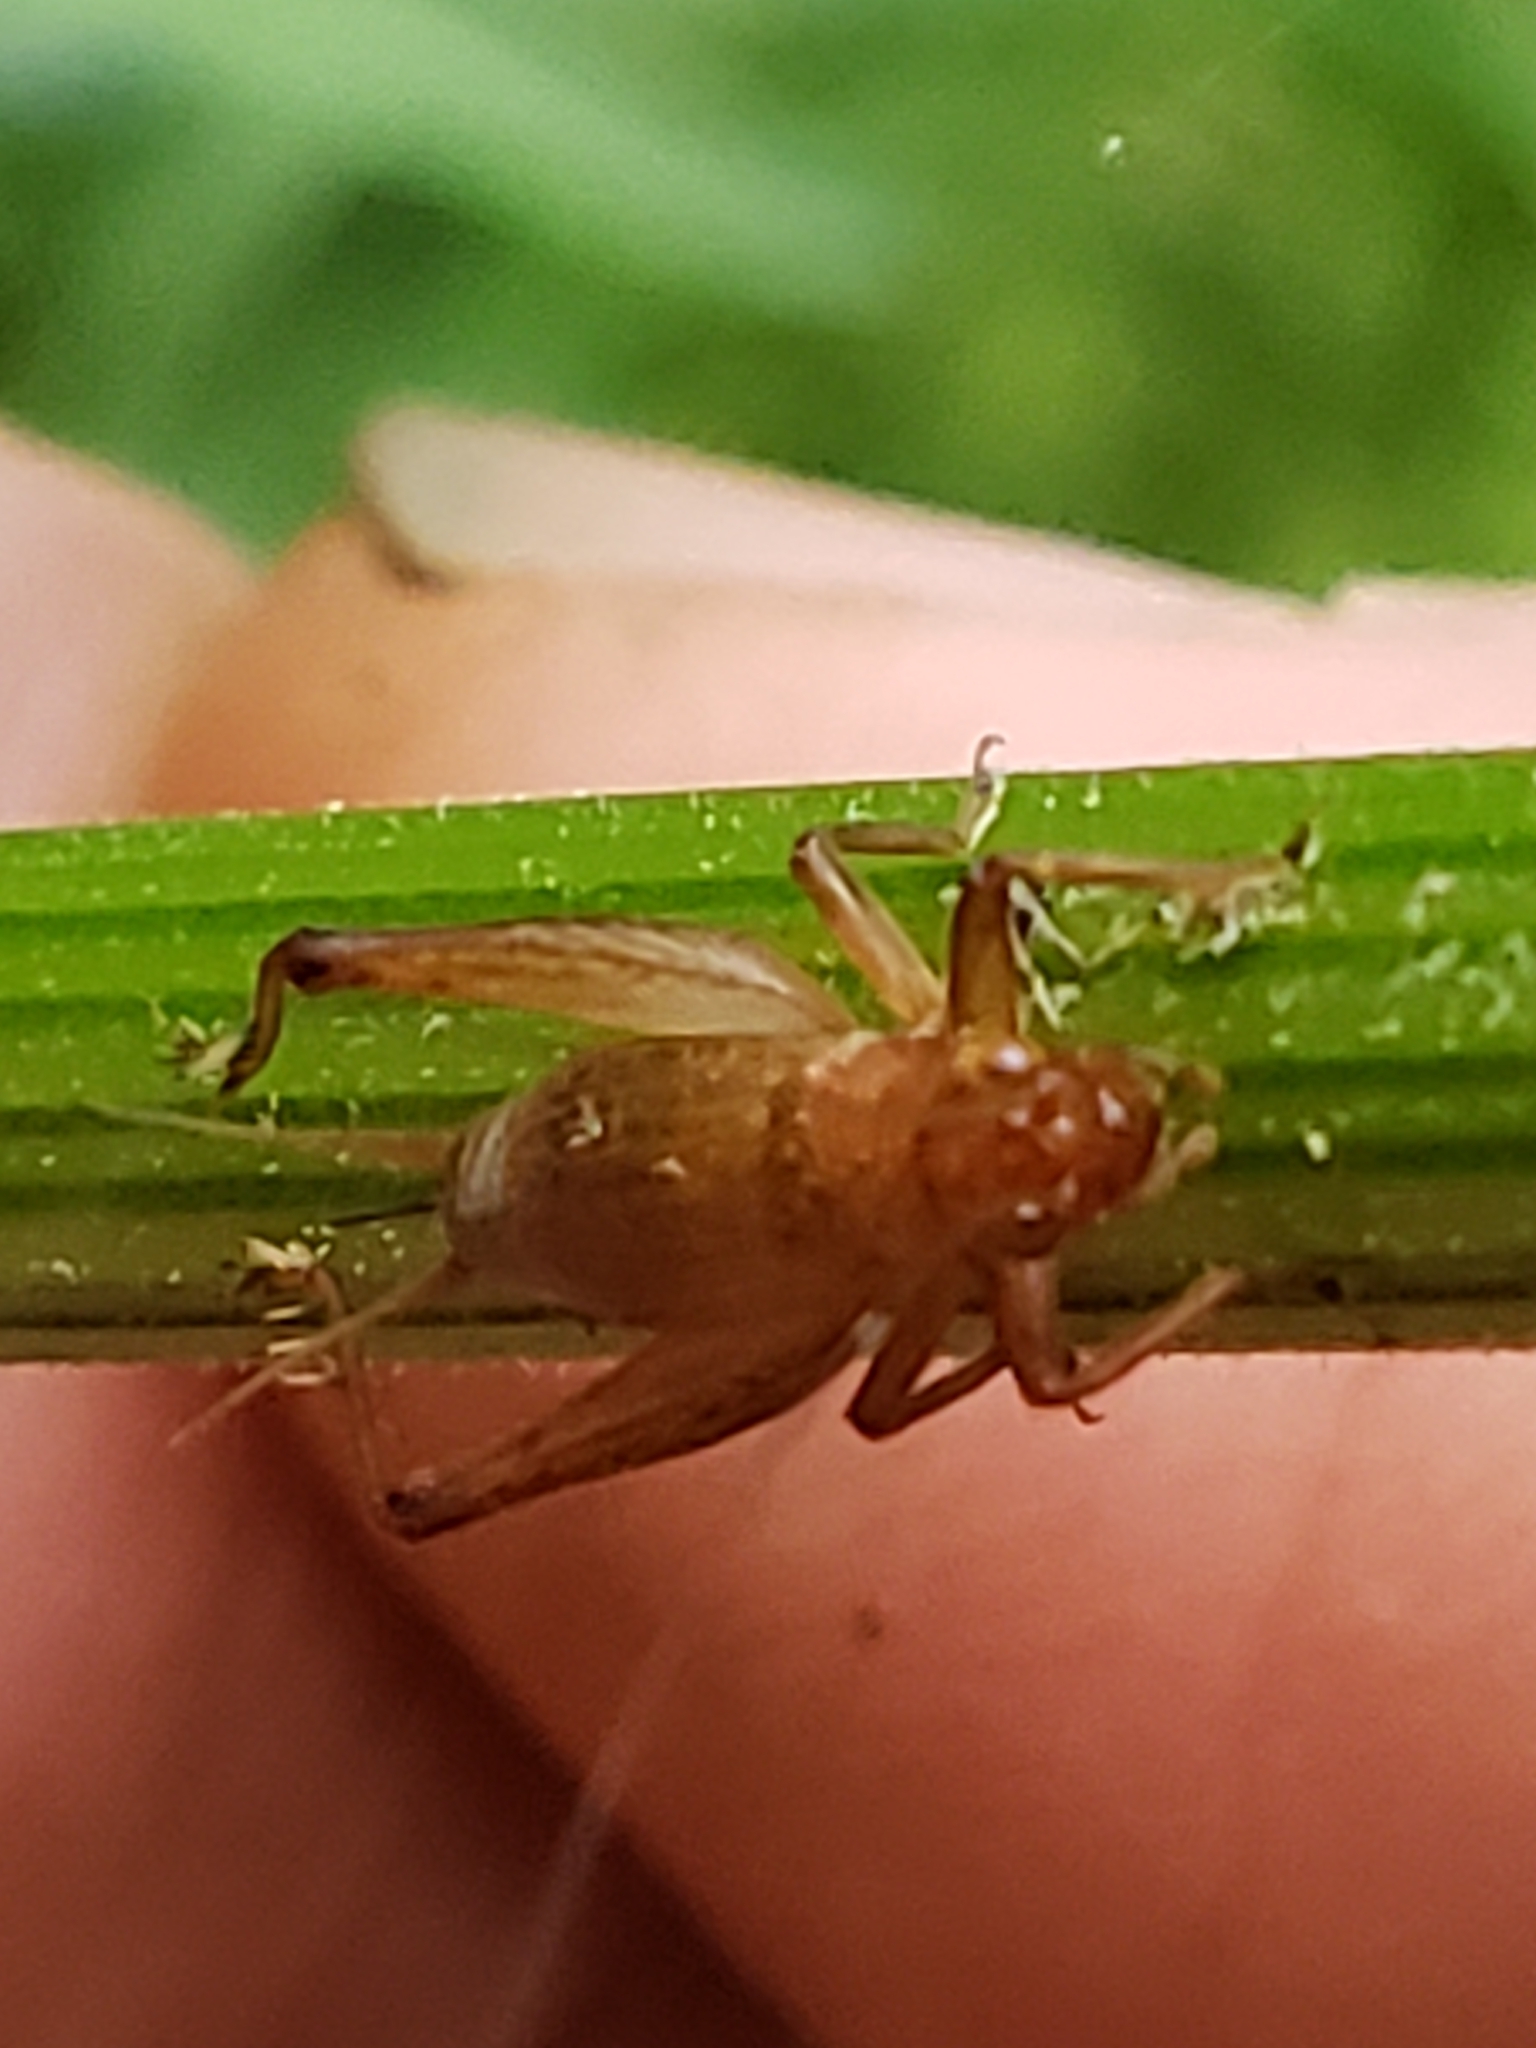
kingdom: Animalia
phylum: Arthropoda
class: Insecta
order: Orthoptera
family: Trigonidiidae
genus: Anaxipha
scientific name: Anaxipha vernalis
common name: Spring trig
